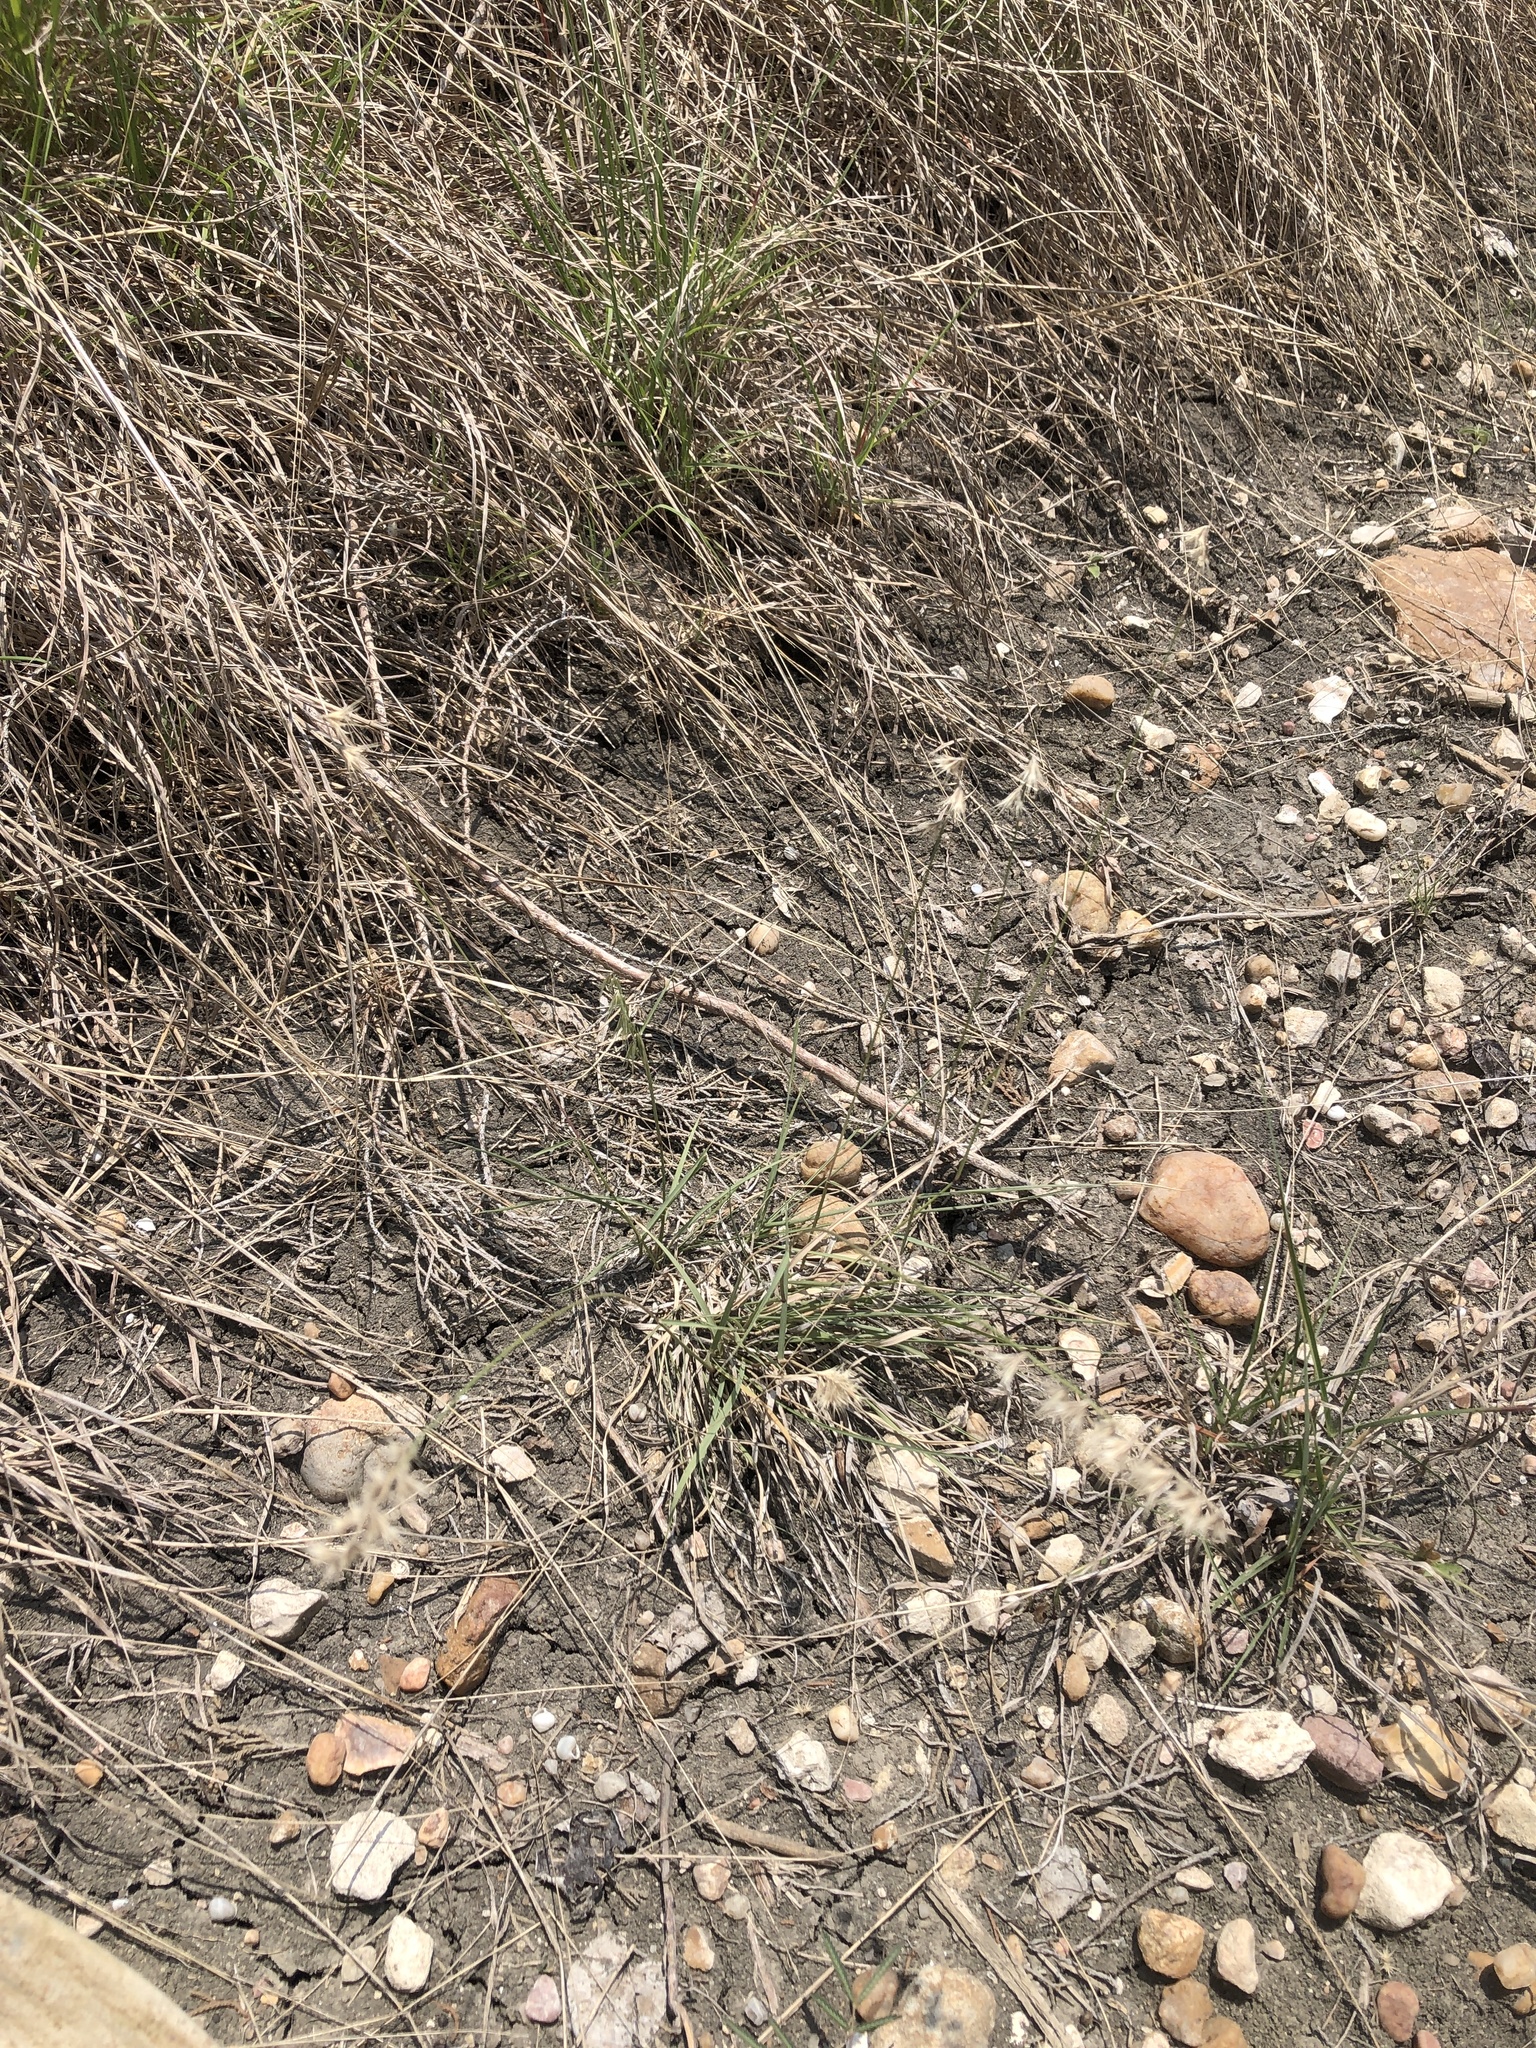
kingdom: Plantae
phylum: Tracheophyta
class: Liliopsida
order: Poales
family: Poaceae
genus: Bouteloua
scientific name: Bouteloua rigidiseta
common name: Texas grama
